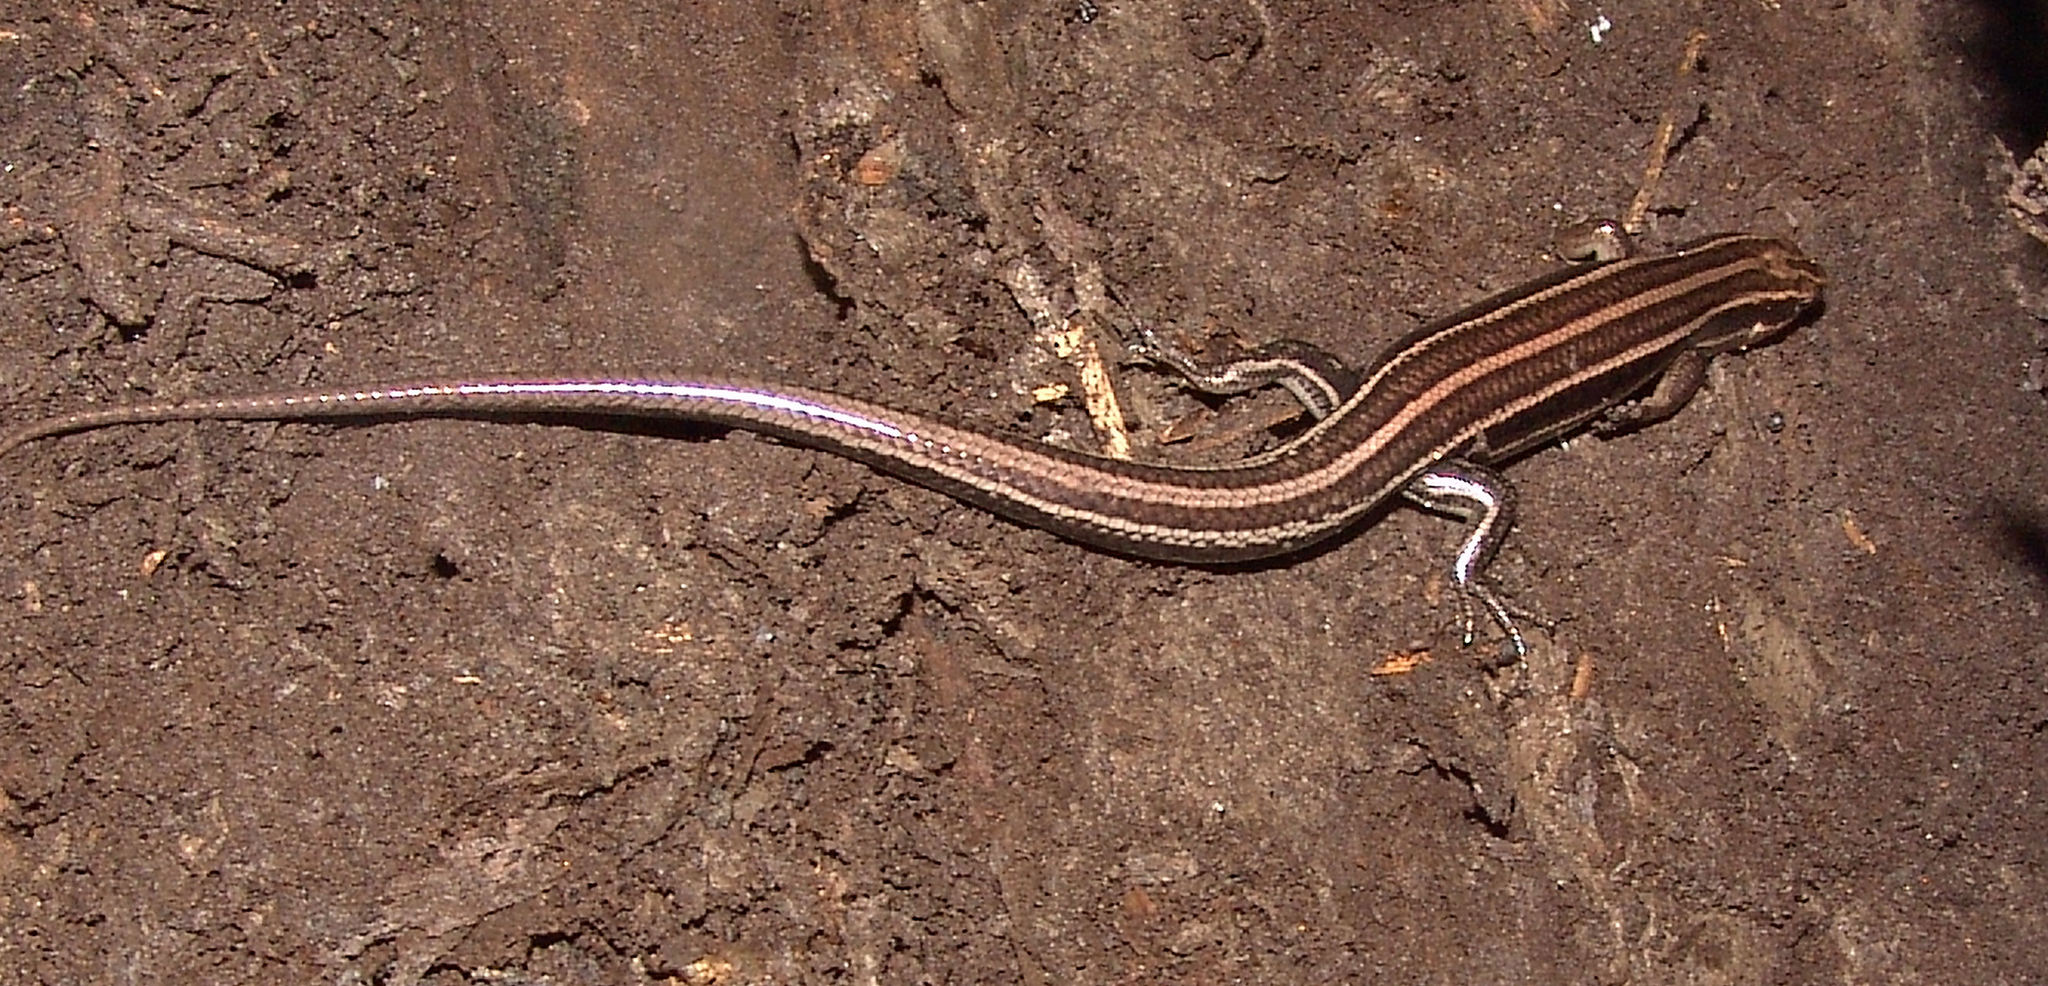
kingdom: Animalia
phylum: Chordata
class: Squamata
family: Scincidae
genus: Plestiodon
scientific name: Plestiodon
